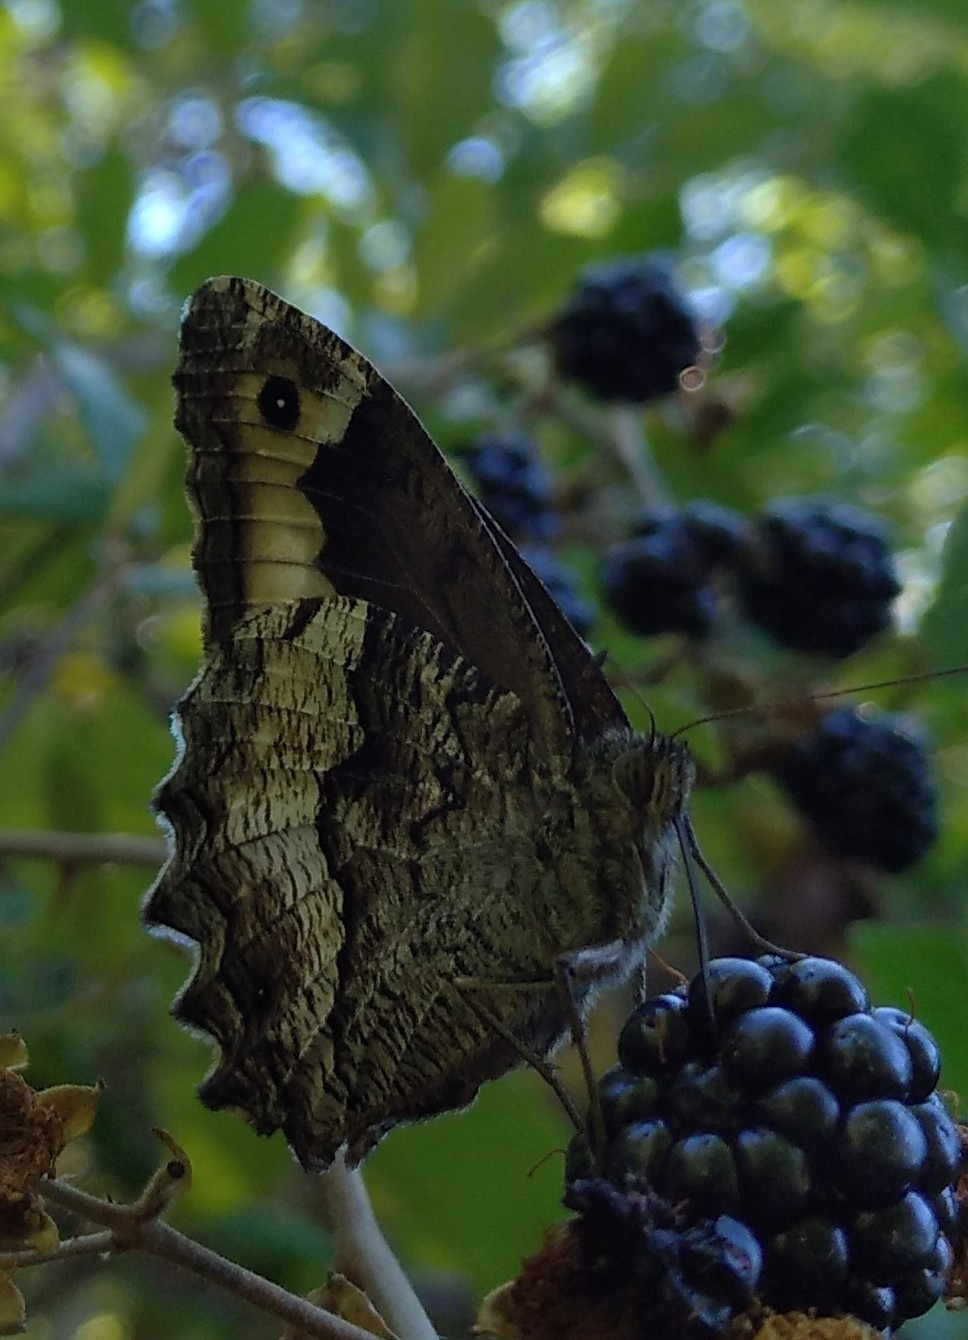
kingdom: Animalia
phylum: Arthropoda
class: Insecta
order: Lepidoptera
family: Nymphalidae
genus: Hipparchia
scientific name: Hipparchia fagi
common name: Woodland grayling
